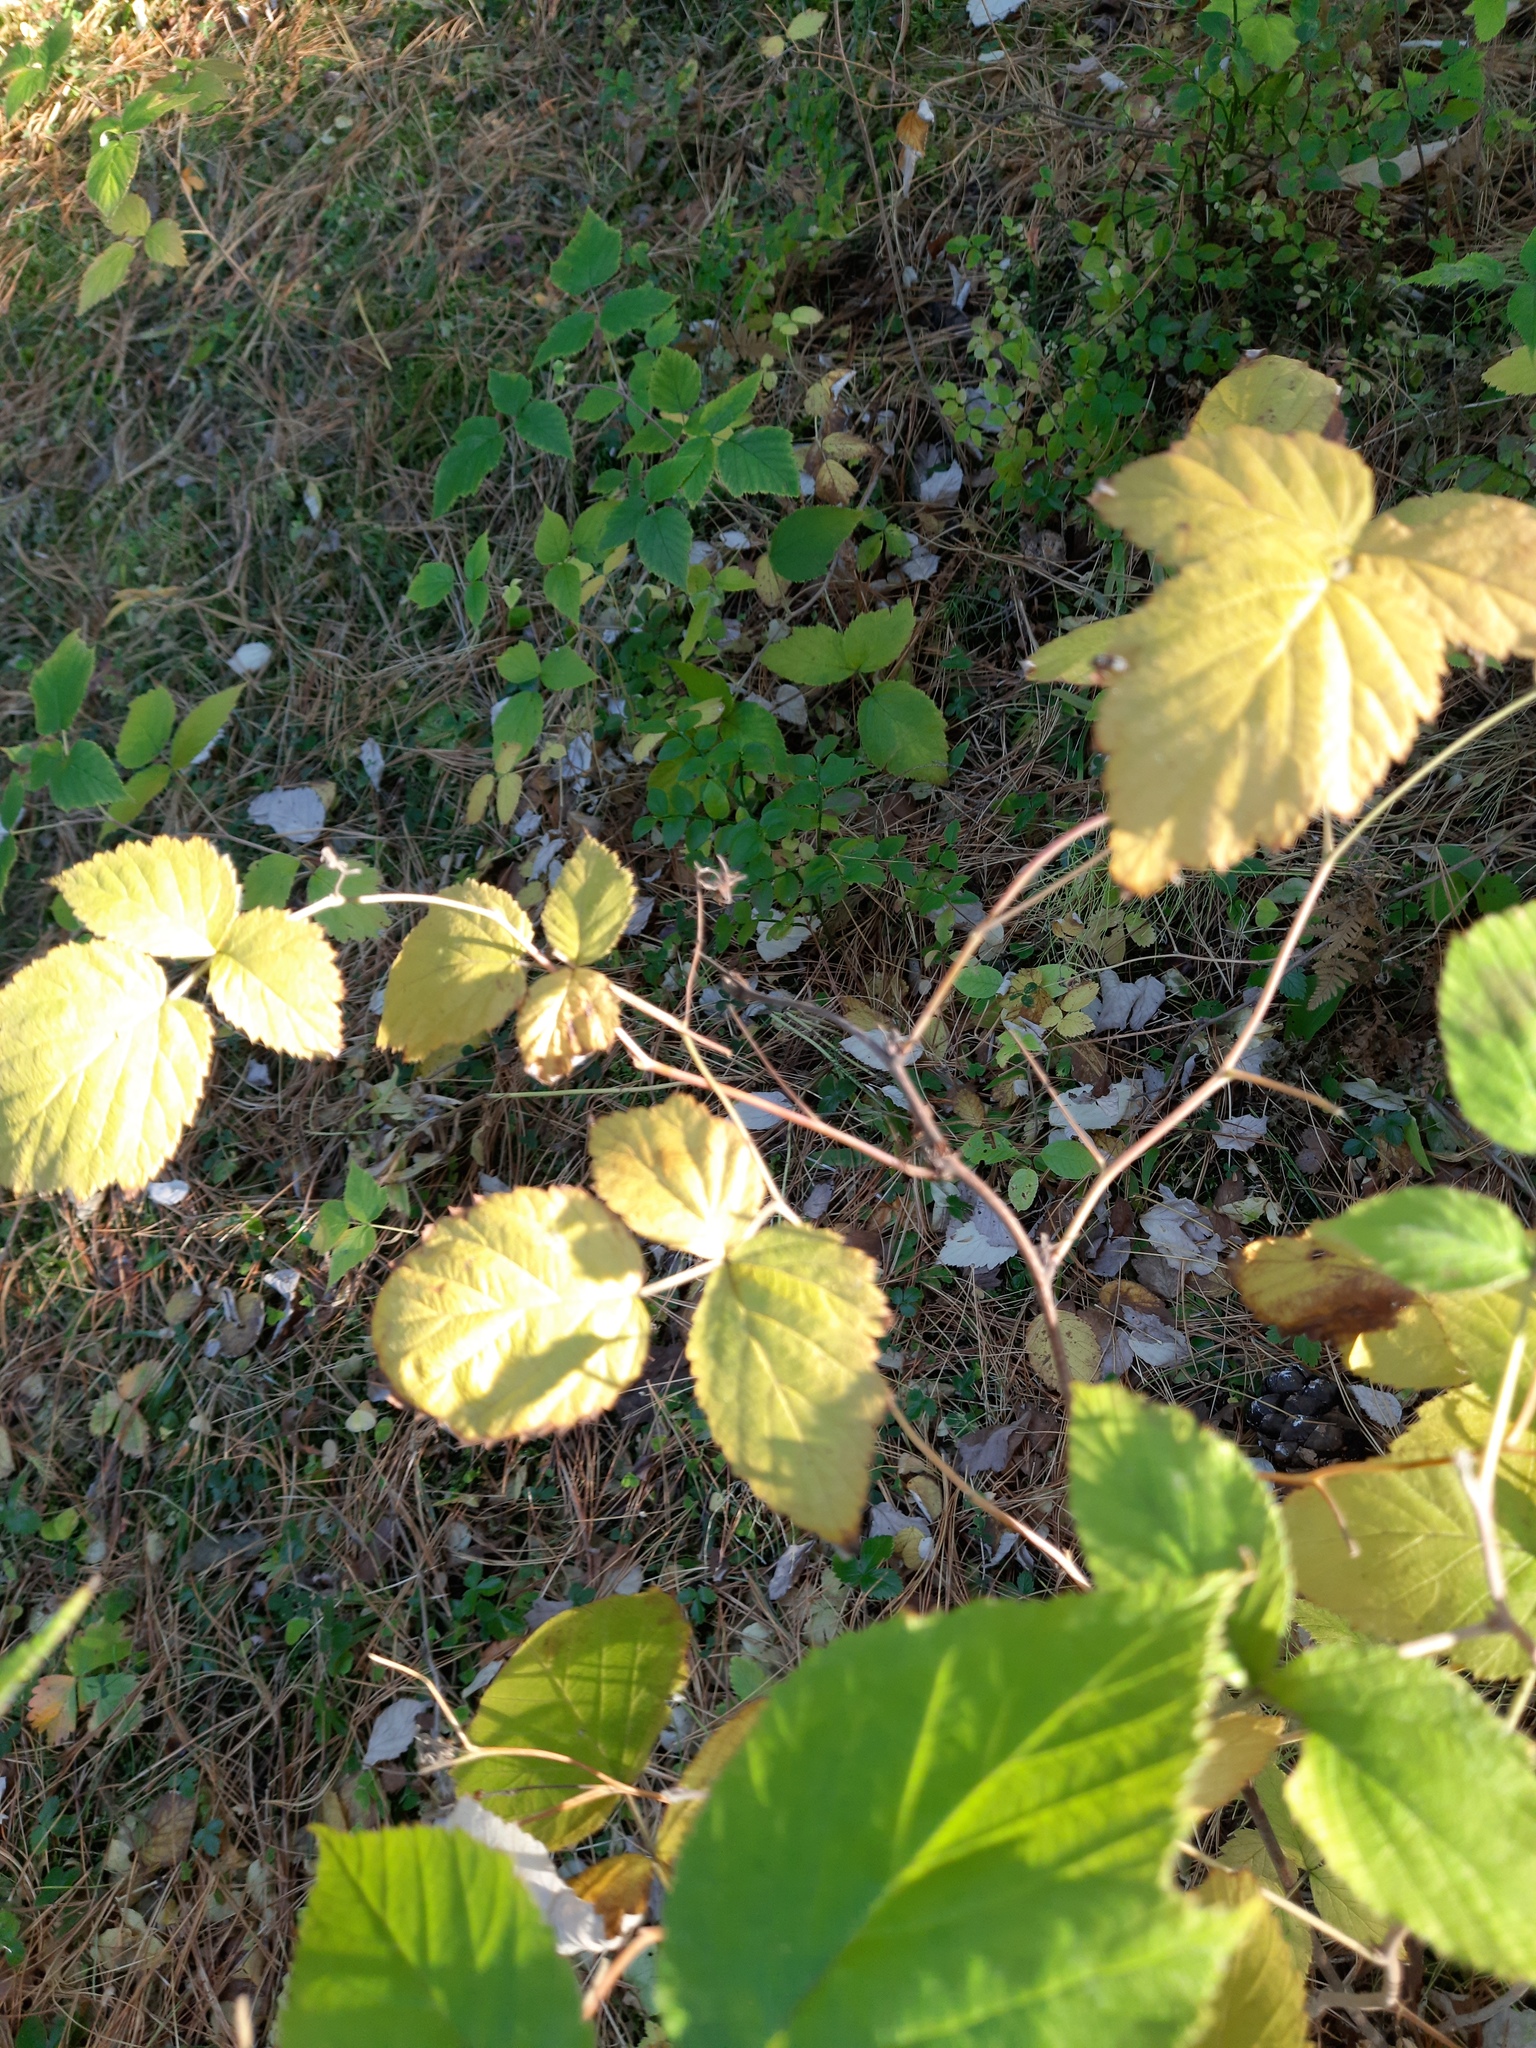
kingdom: Plantae
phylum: Tracheophyta
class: Magnoliopsida
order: Rosales
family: Rosaceae
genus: Rubus
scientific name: Rubus idaeus
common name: Raspberry
